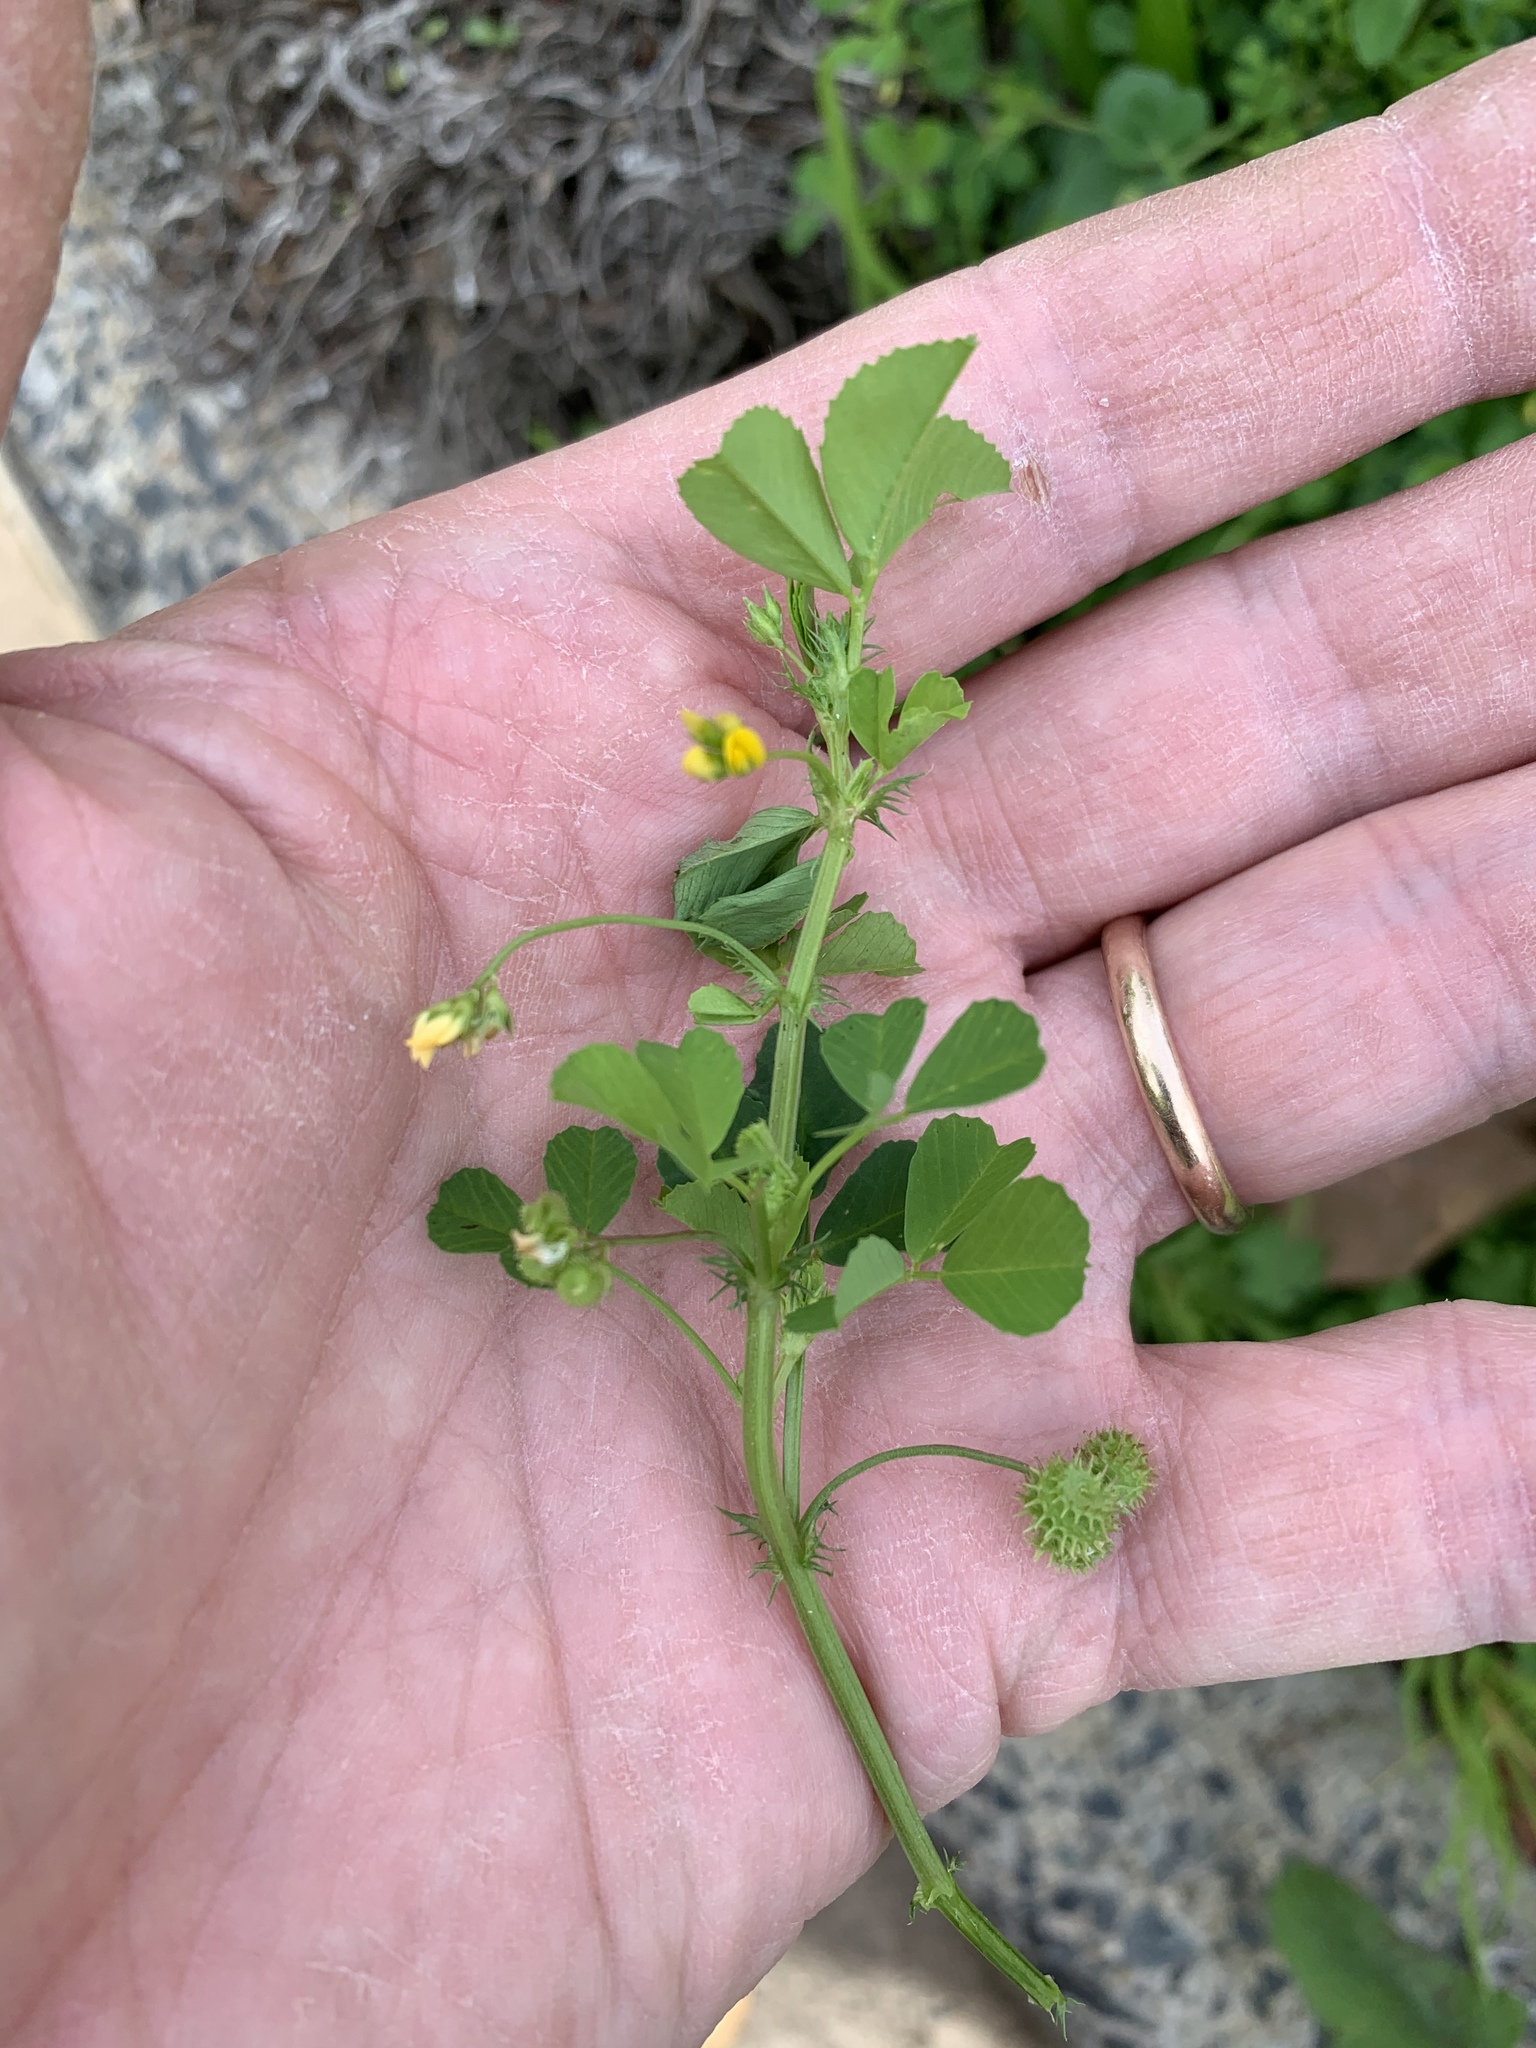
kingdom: Plantae
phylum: Tracheophyta
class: Magnoliopsida
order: Fabales
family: Fabaceae
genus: Medicago
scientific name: Medicago polymorpha
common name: Burclover
